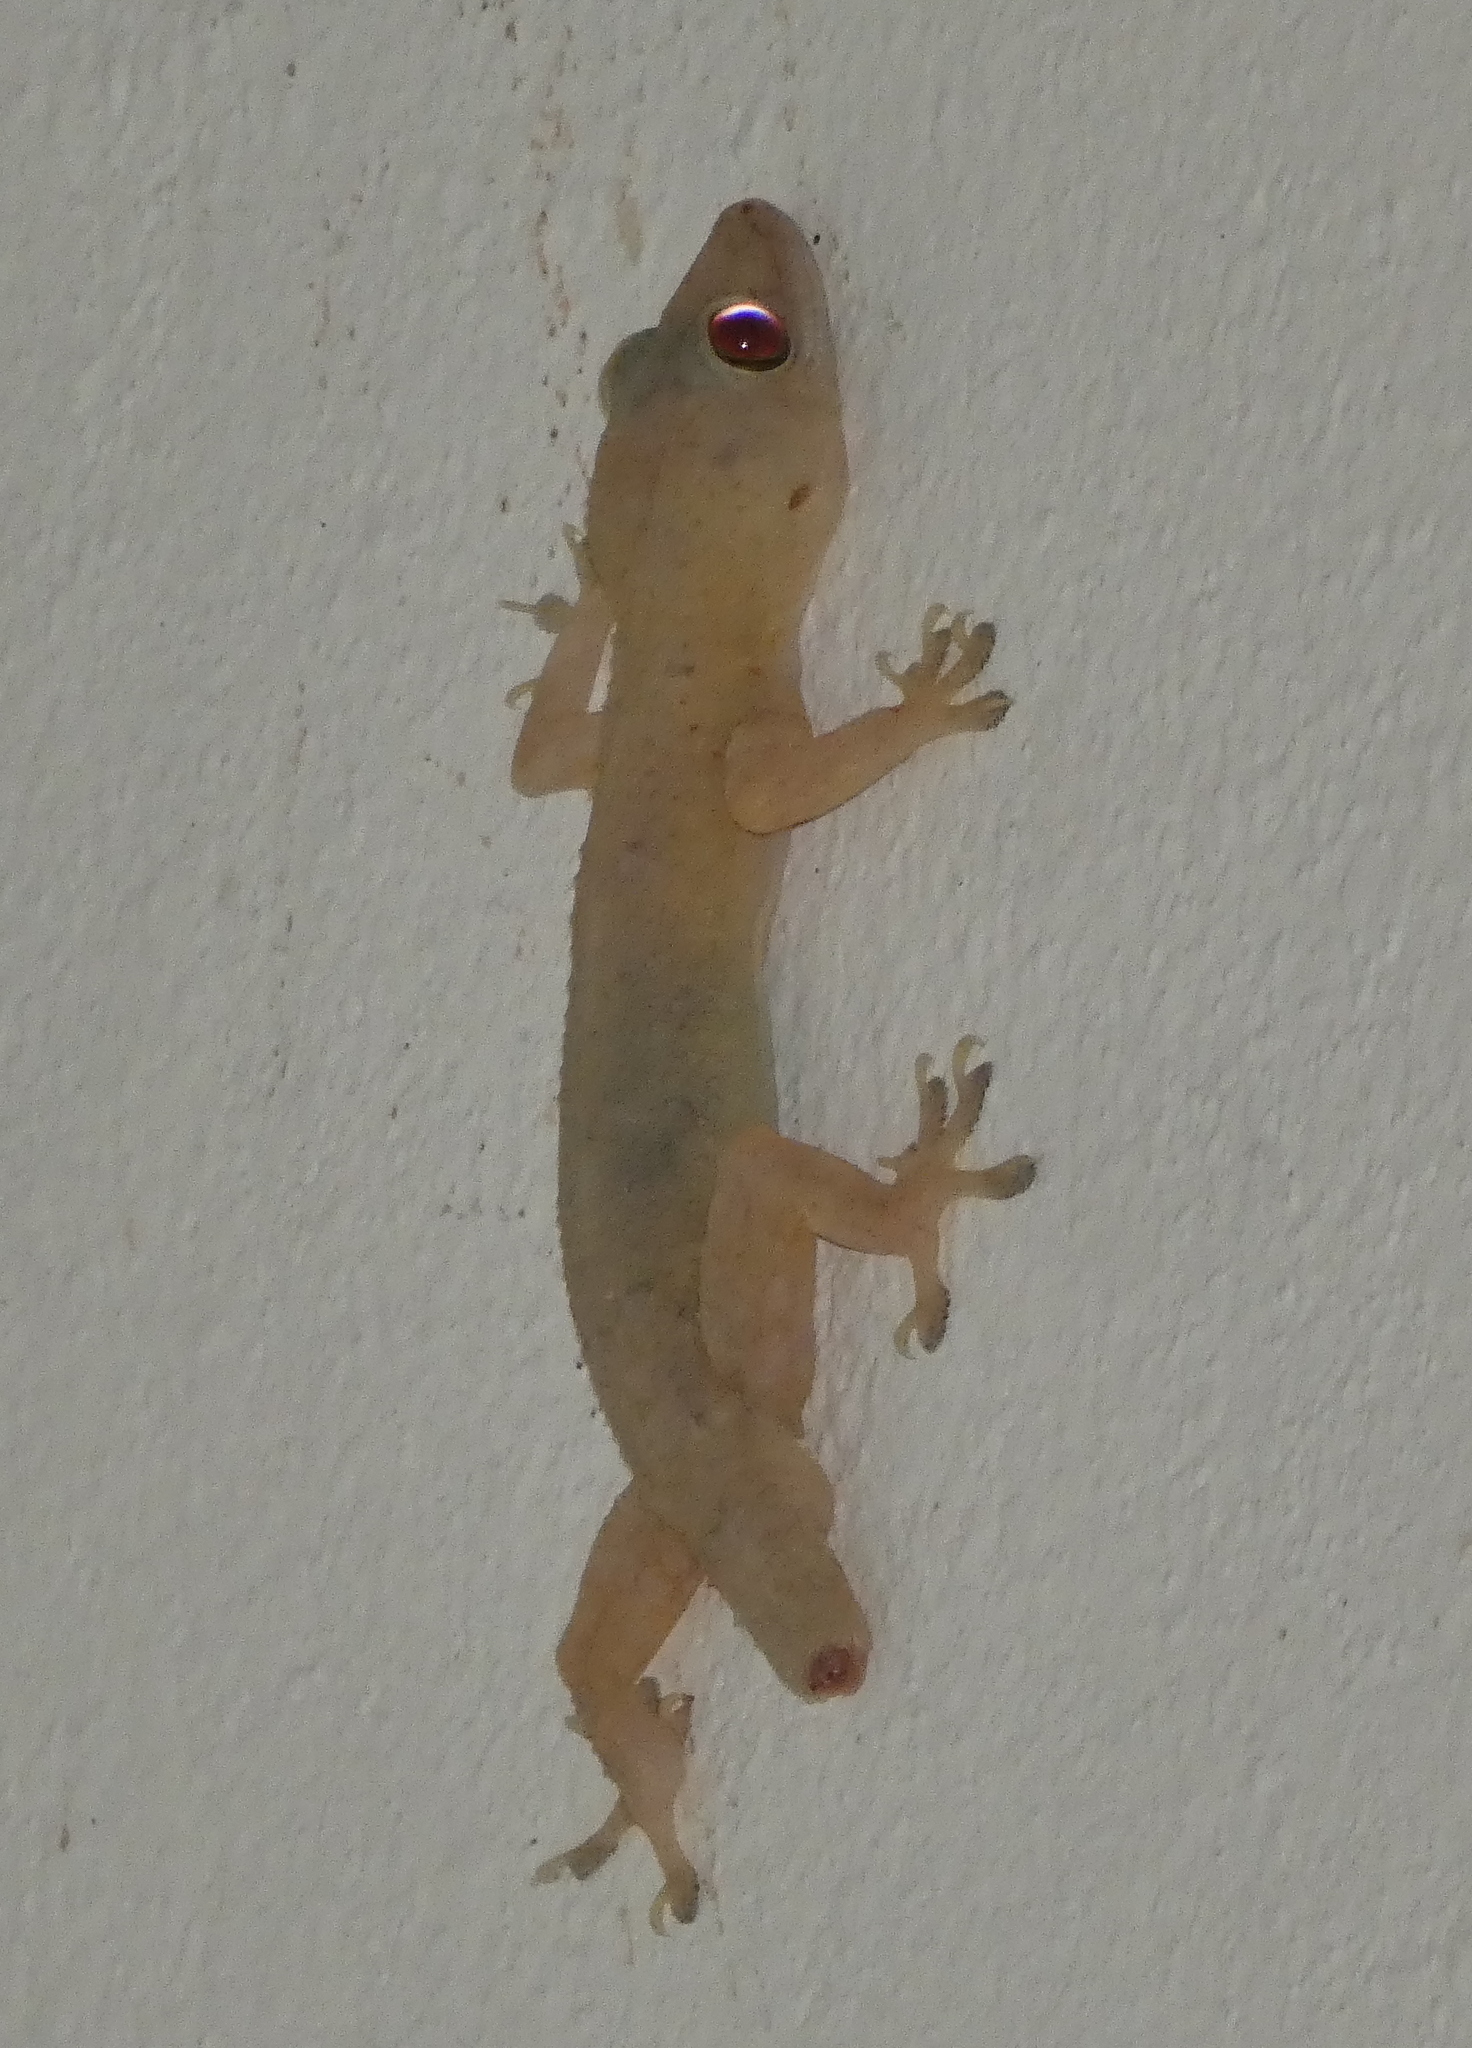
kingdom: Animalia
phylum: Chordata
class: Squamata
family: Gekkonidae
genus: Hemidactylus
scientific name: Hemidactylus mabouia
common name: House gecko
